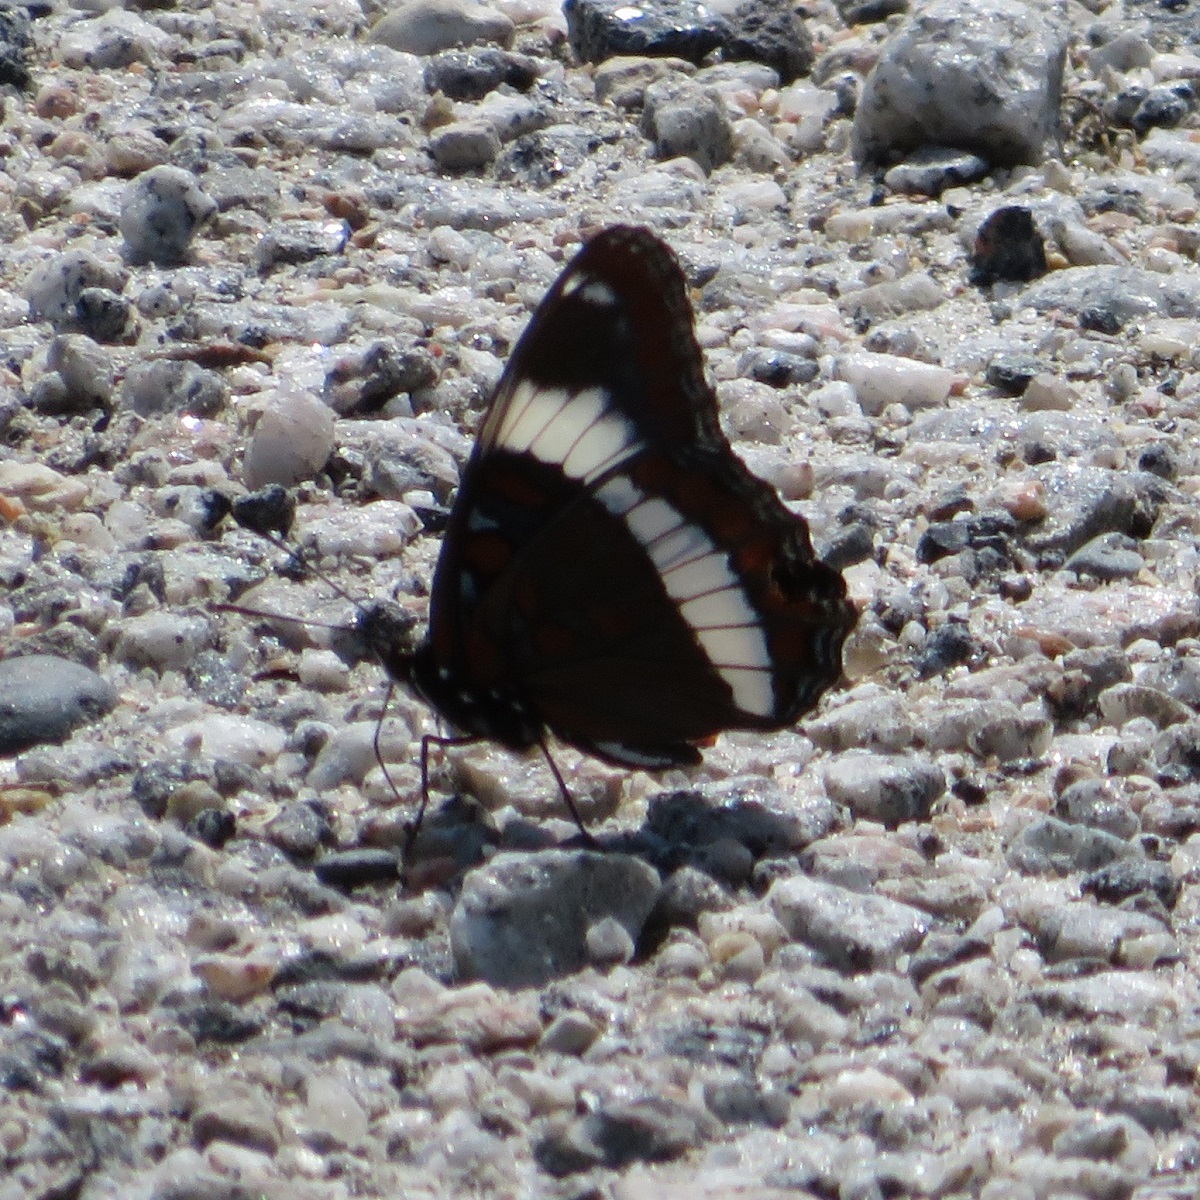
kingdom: Animalia
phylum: Arthropoda
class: Insecta
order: Lepidoptera
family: Nymphalidae
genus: Limenitis
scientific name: Limenitis arthemis
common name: Red-spotted admiral
